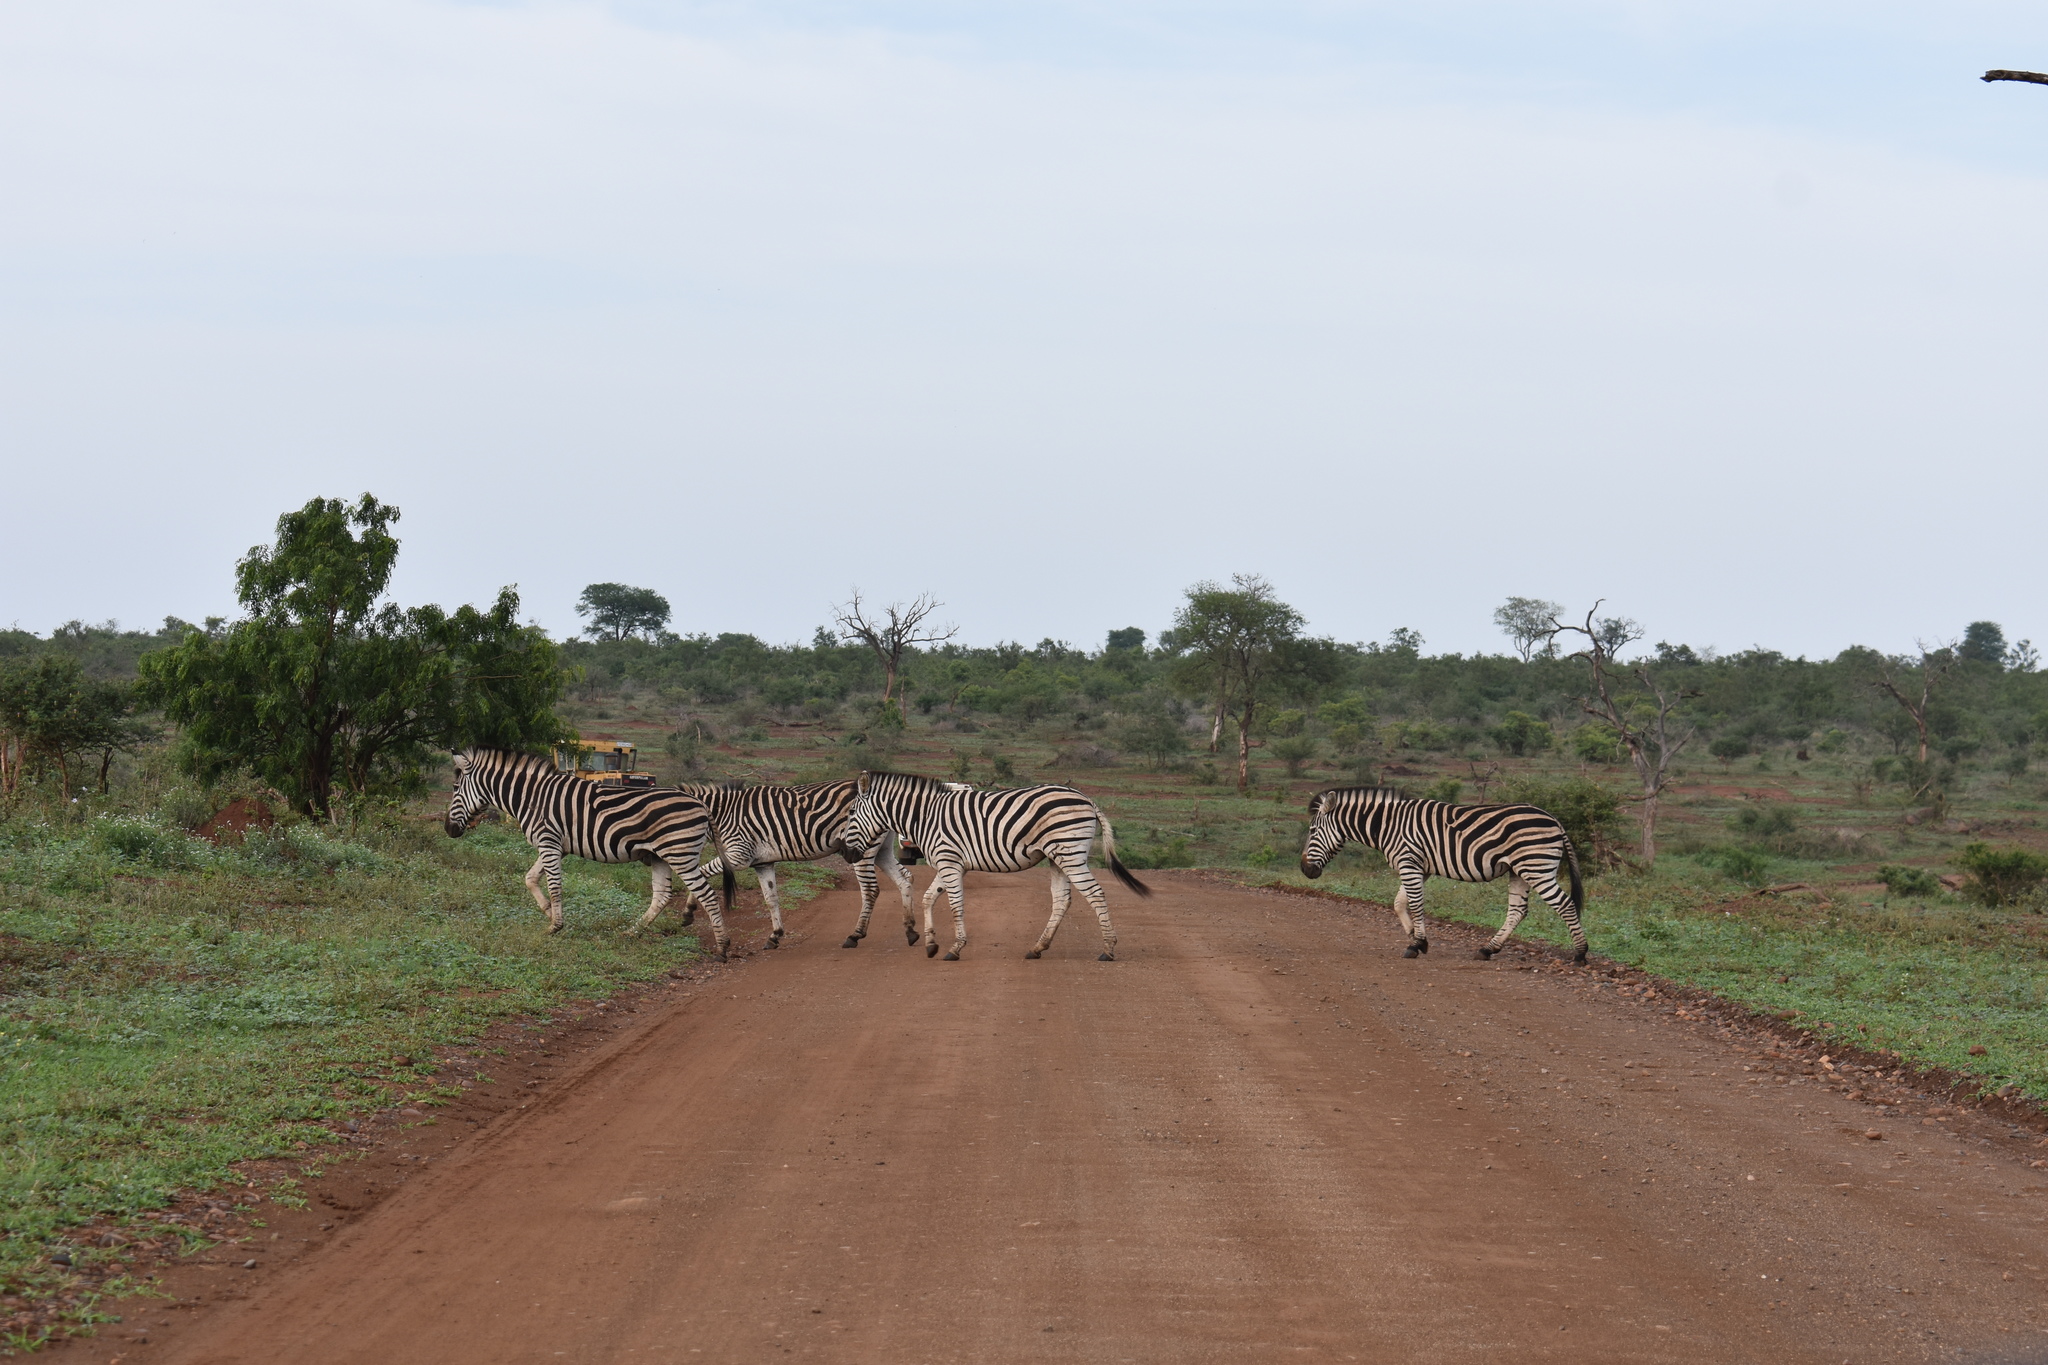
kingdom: Animalia
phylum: Chordata
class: Mammalia
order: Perissodactyla
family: Equidae
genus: Equus
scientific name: Equus quagga
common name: Plains zebra
